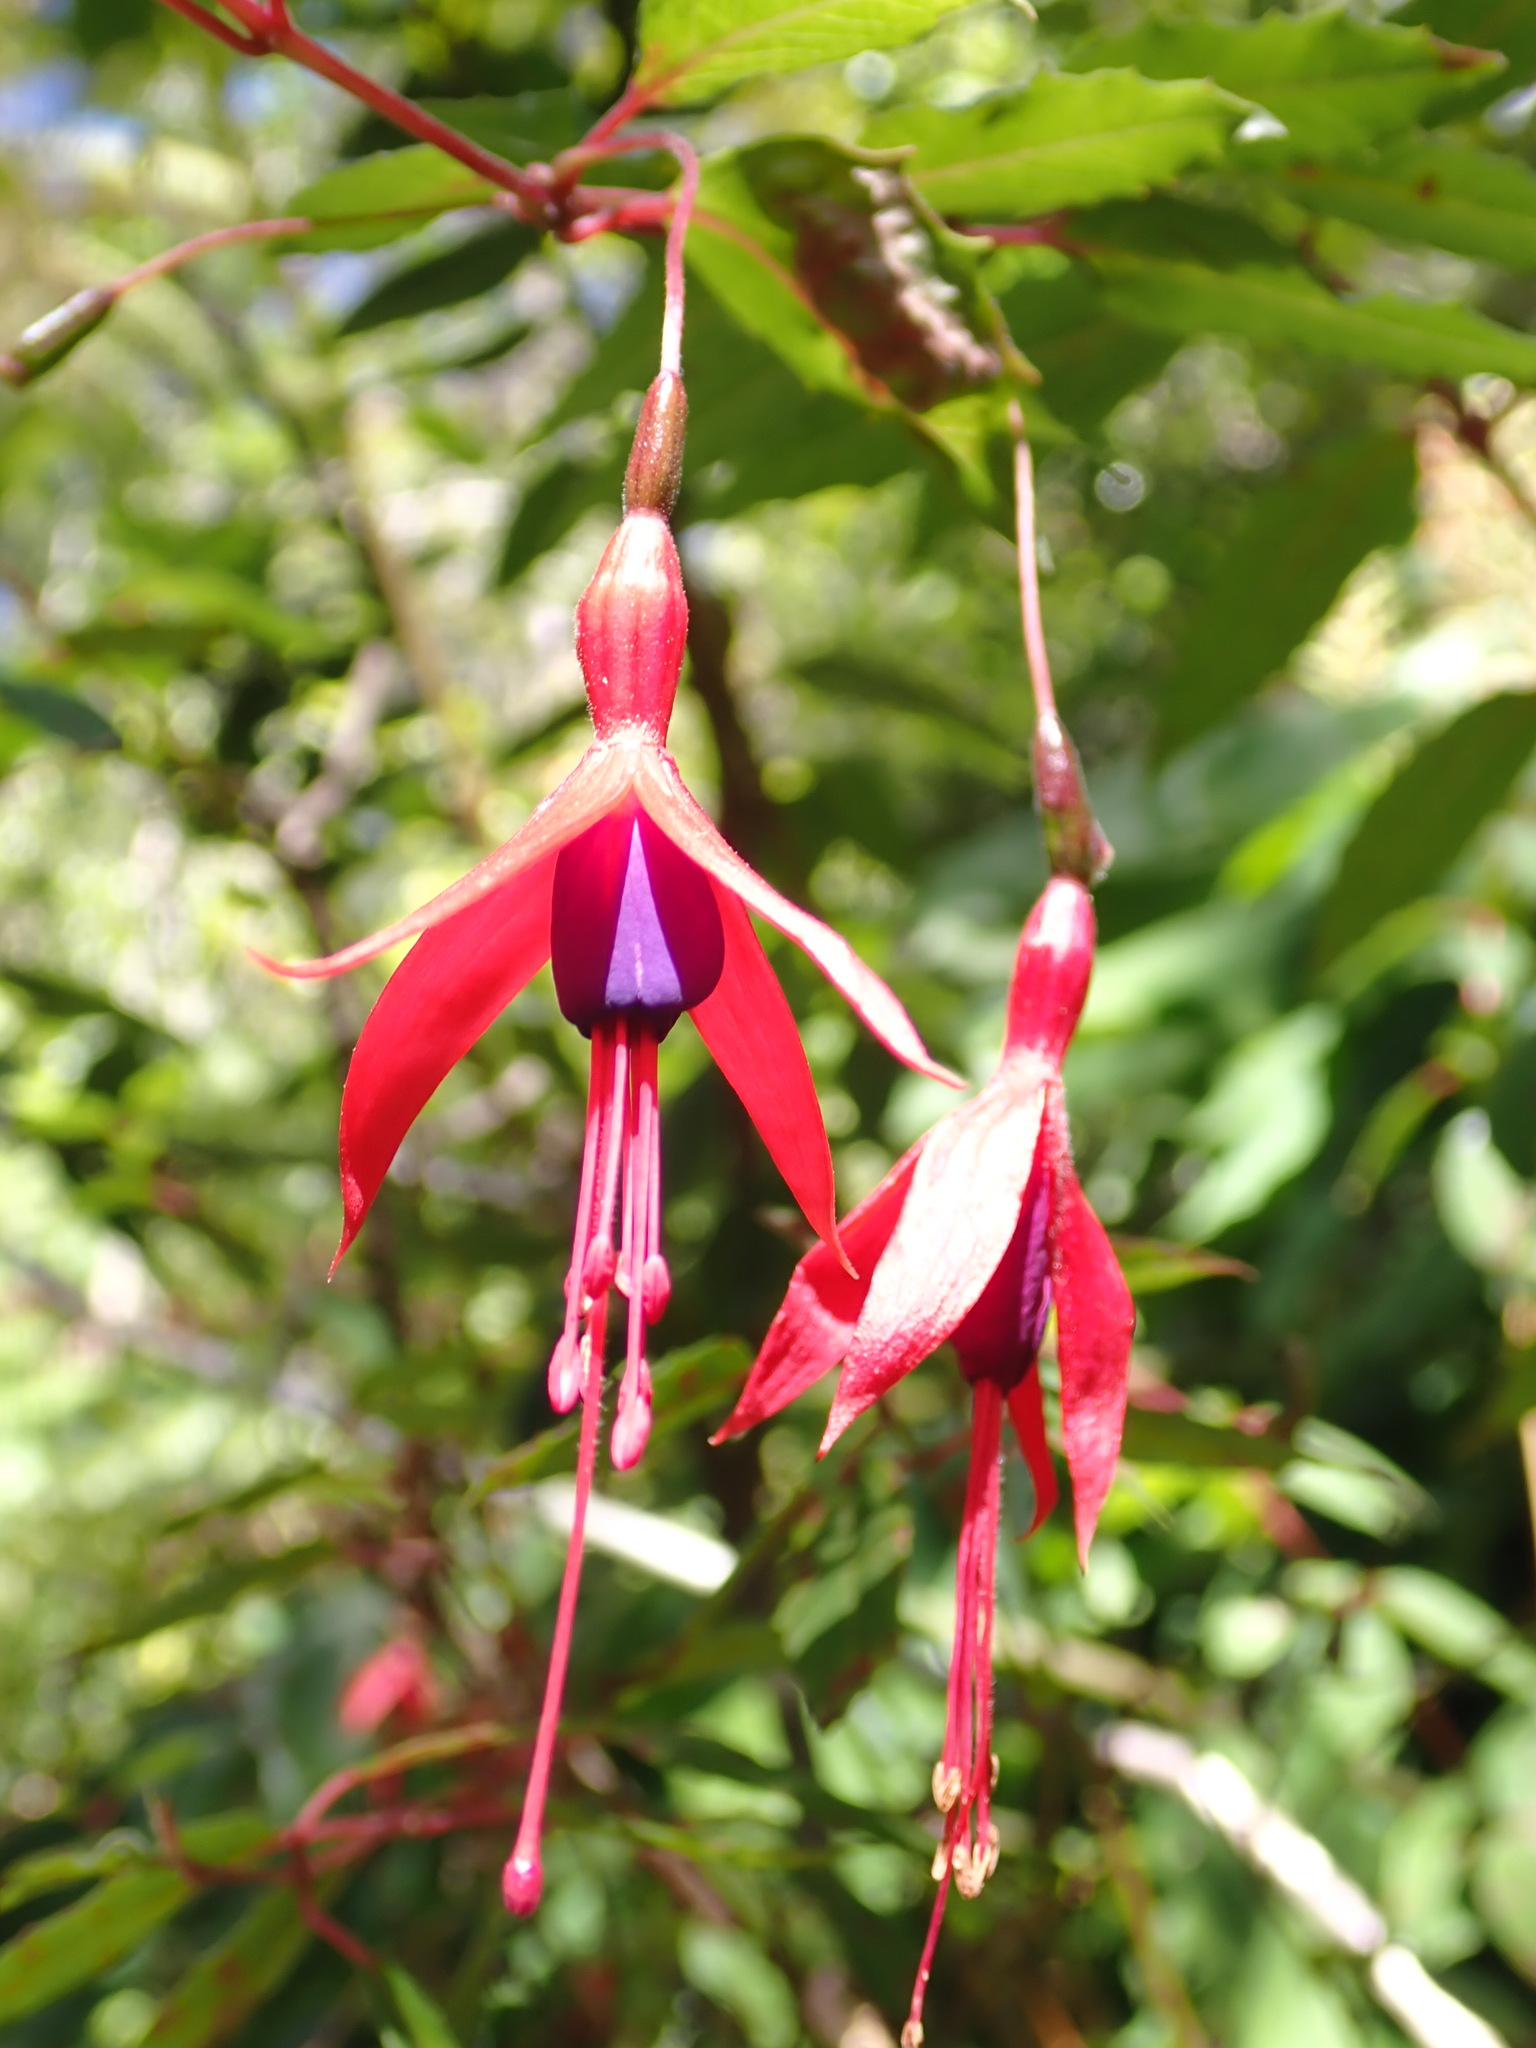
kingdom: Plantae
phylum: Tracheophyta
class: Magnoliopsida
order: Myrtales
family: Onagraceae
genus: Fuchsia
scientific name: Fuchsia magellanica
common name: Hardy fuchsia
